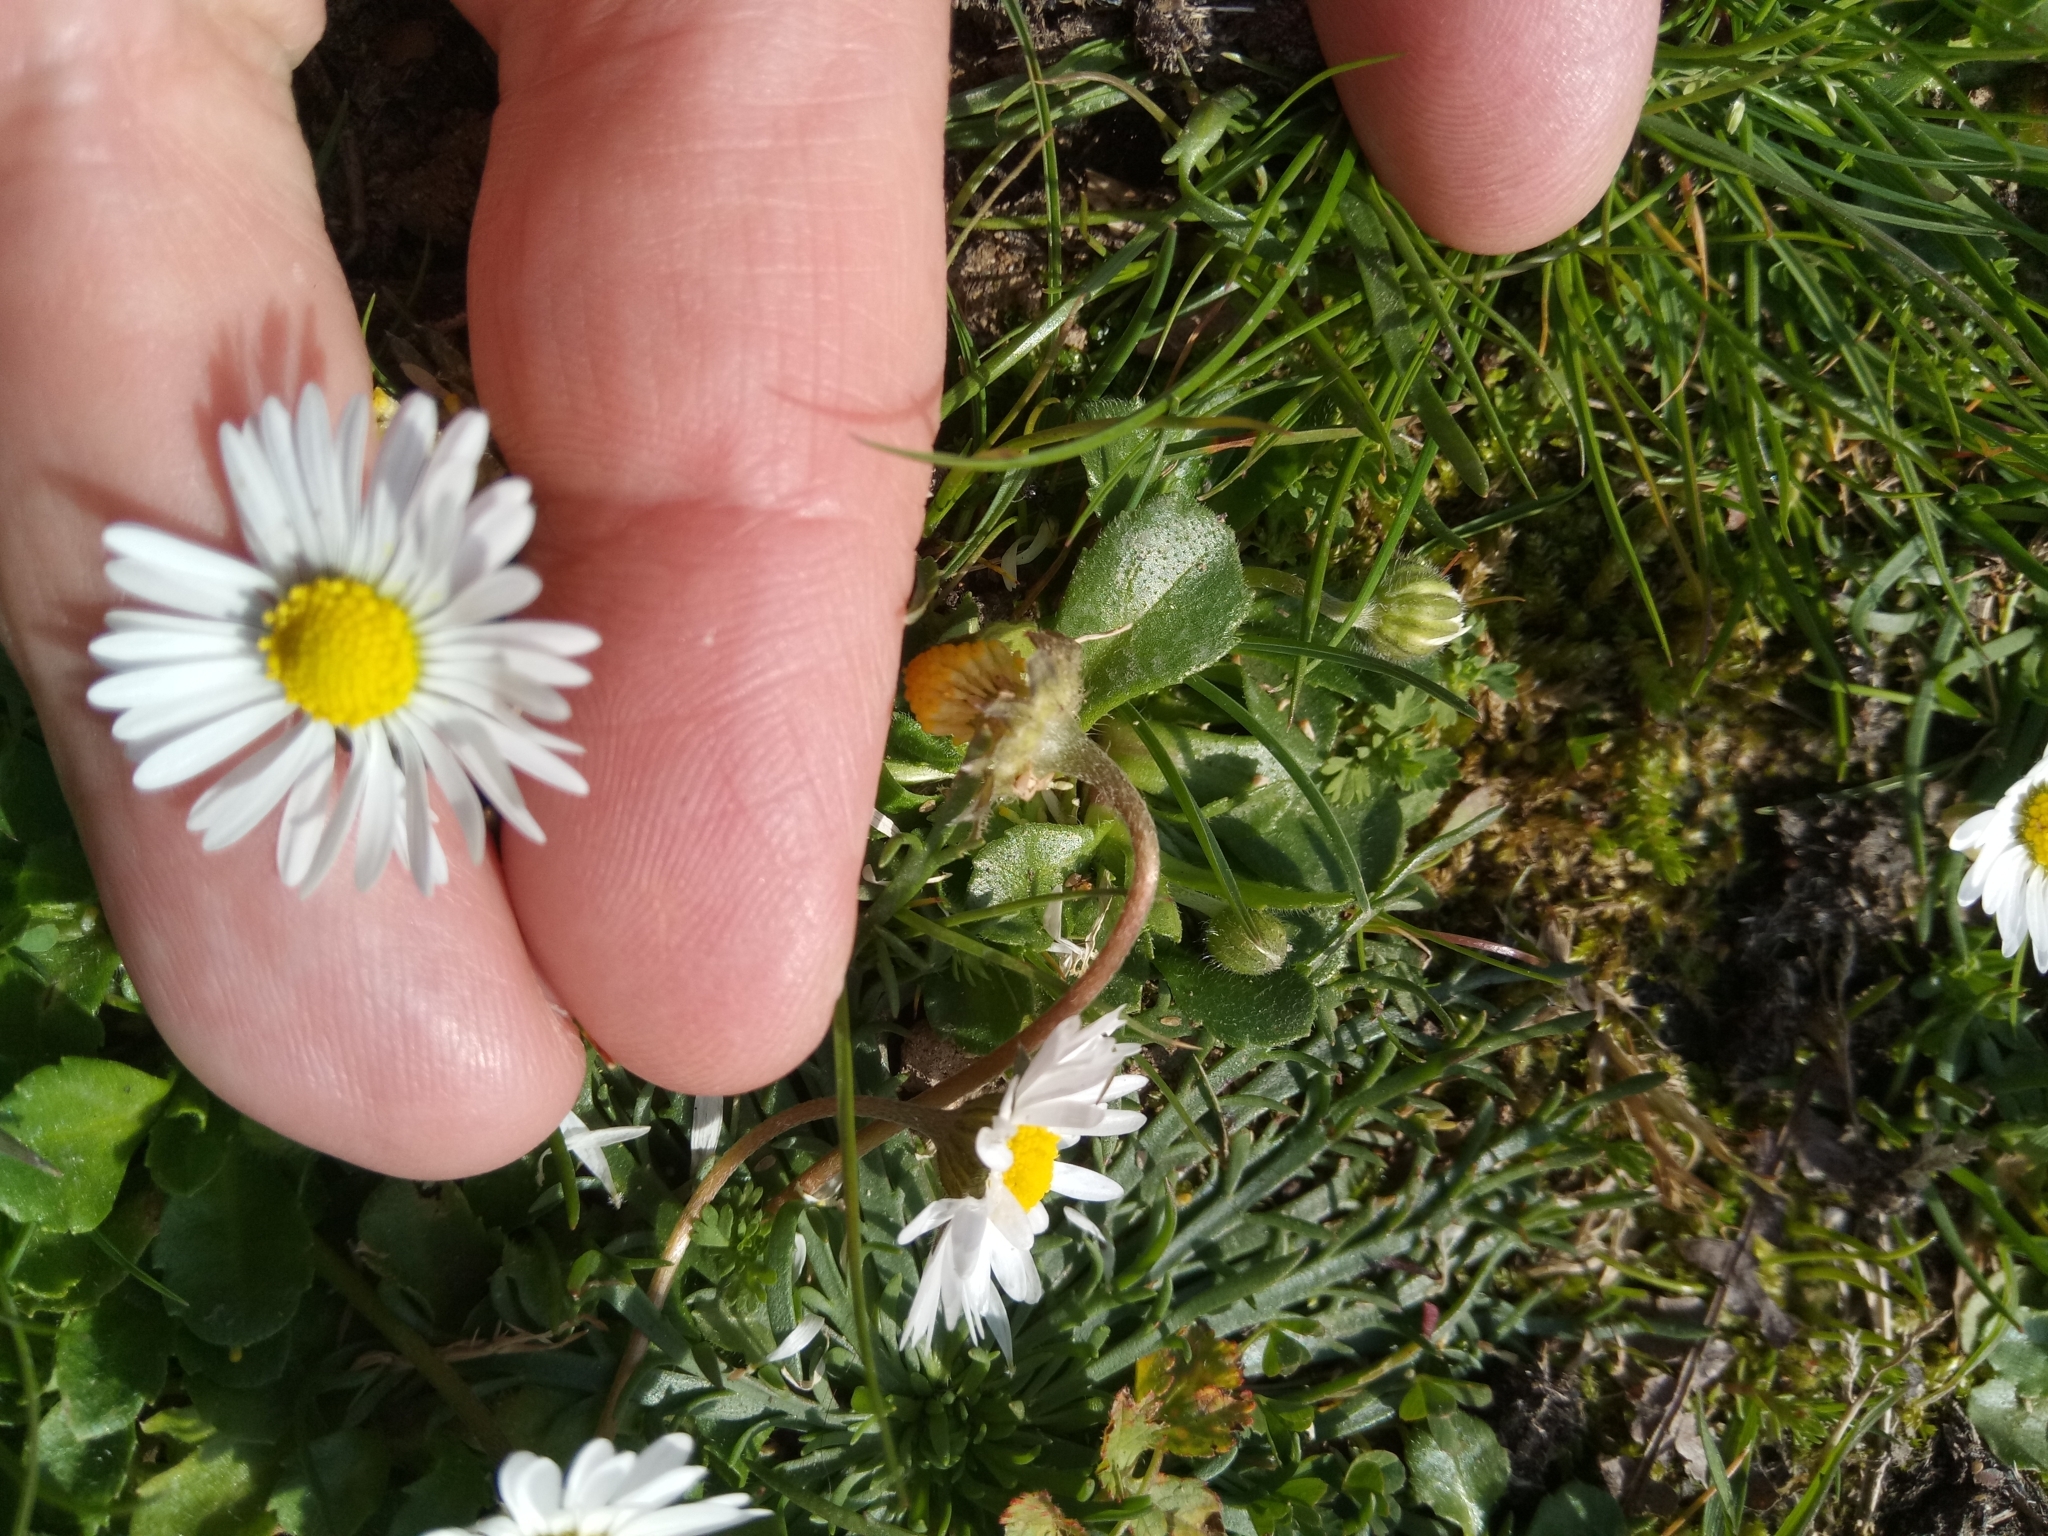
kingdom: Plantae
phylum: Tracheophyta
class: Magnoliopsida
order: Asterales
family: Asteraceae
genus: Bellis
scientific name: Bellis perennis
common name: Lawndaisy
